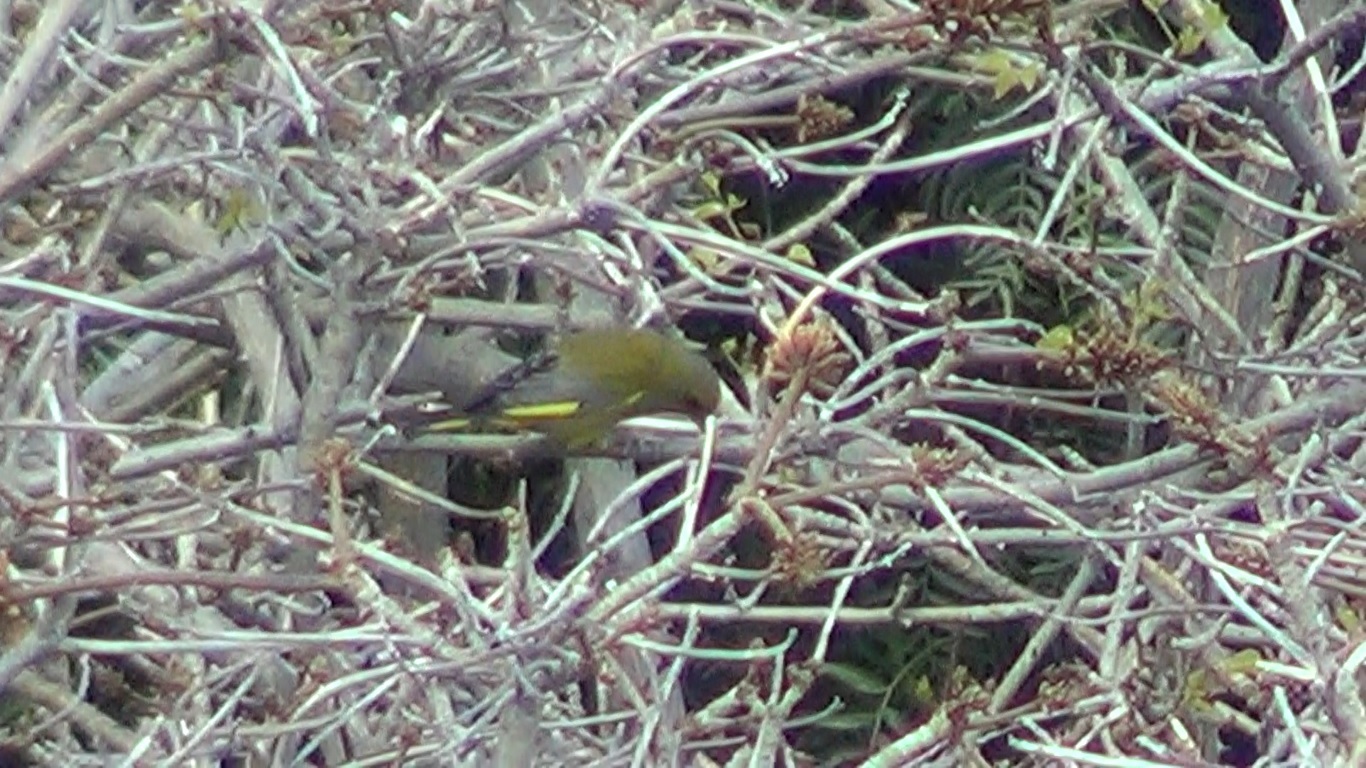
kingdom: Plantae
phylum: Tracheophyta
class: Liliopsida
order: Poales
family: Poaceae
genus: Chloris
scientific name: Chloris chloris
